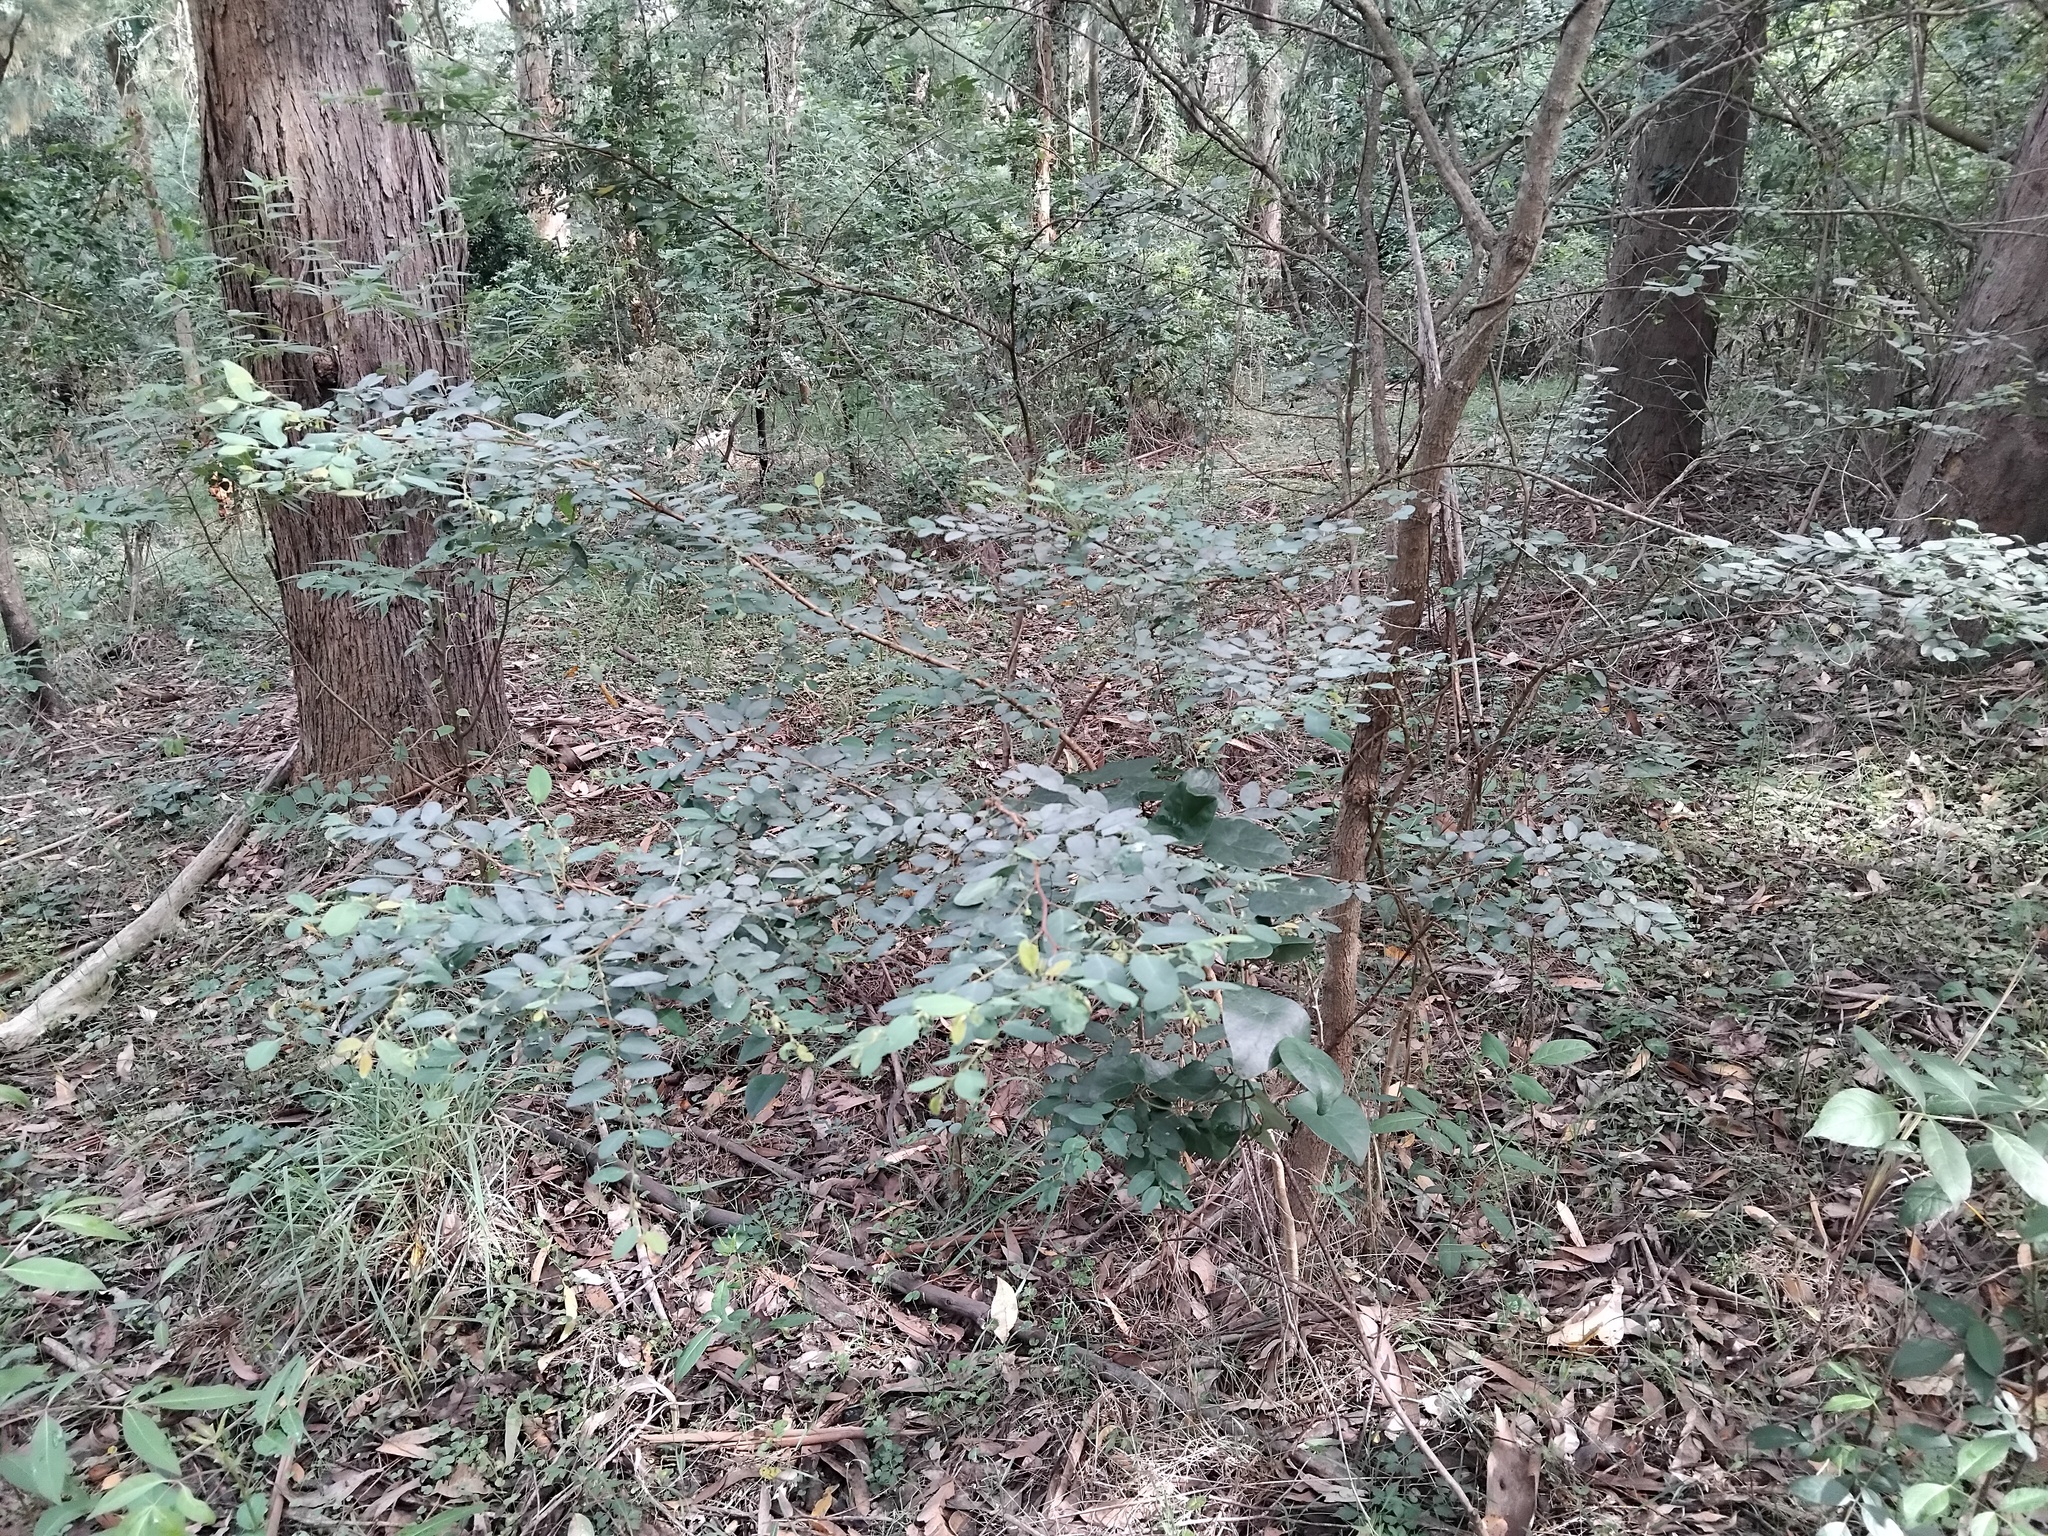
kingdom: Plantae
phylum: Tracheophyta
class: Magnoliopsida
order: Malpighiales
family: Phyllanthaceae
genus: Breynia
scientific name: Breynia oblongifolia
